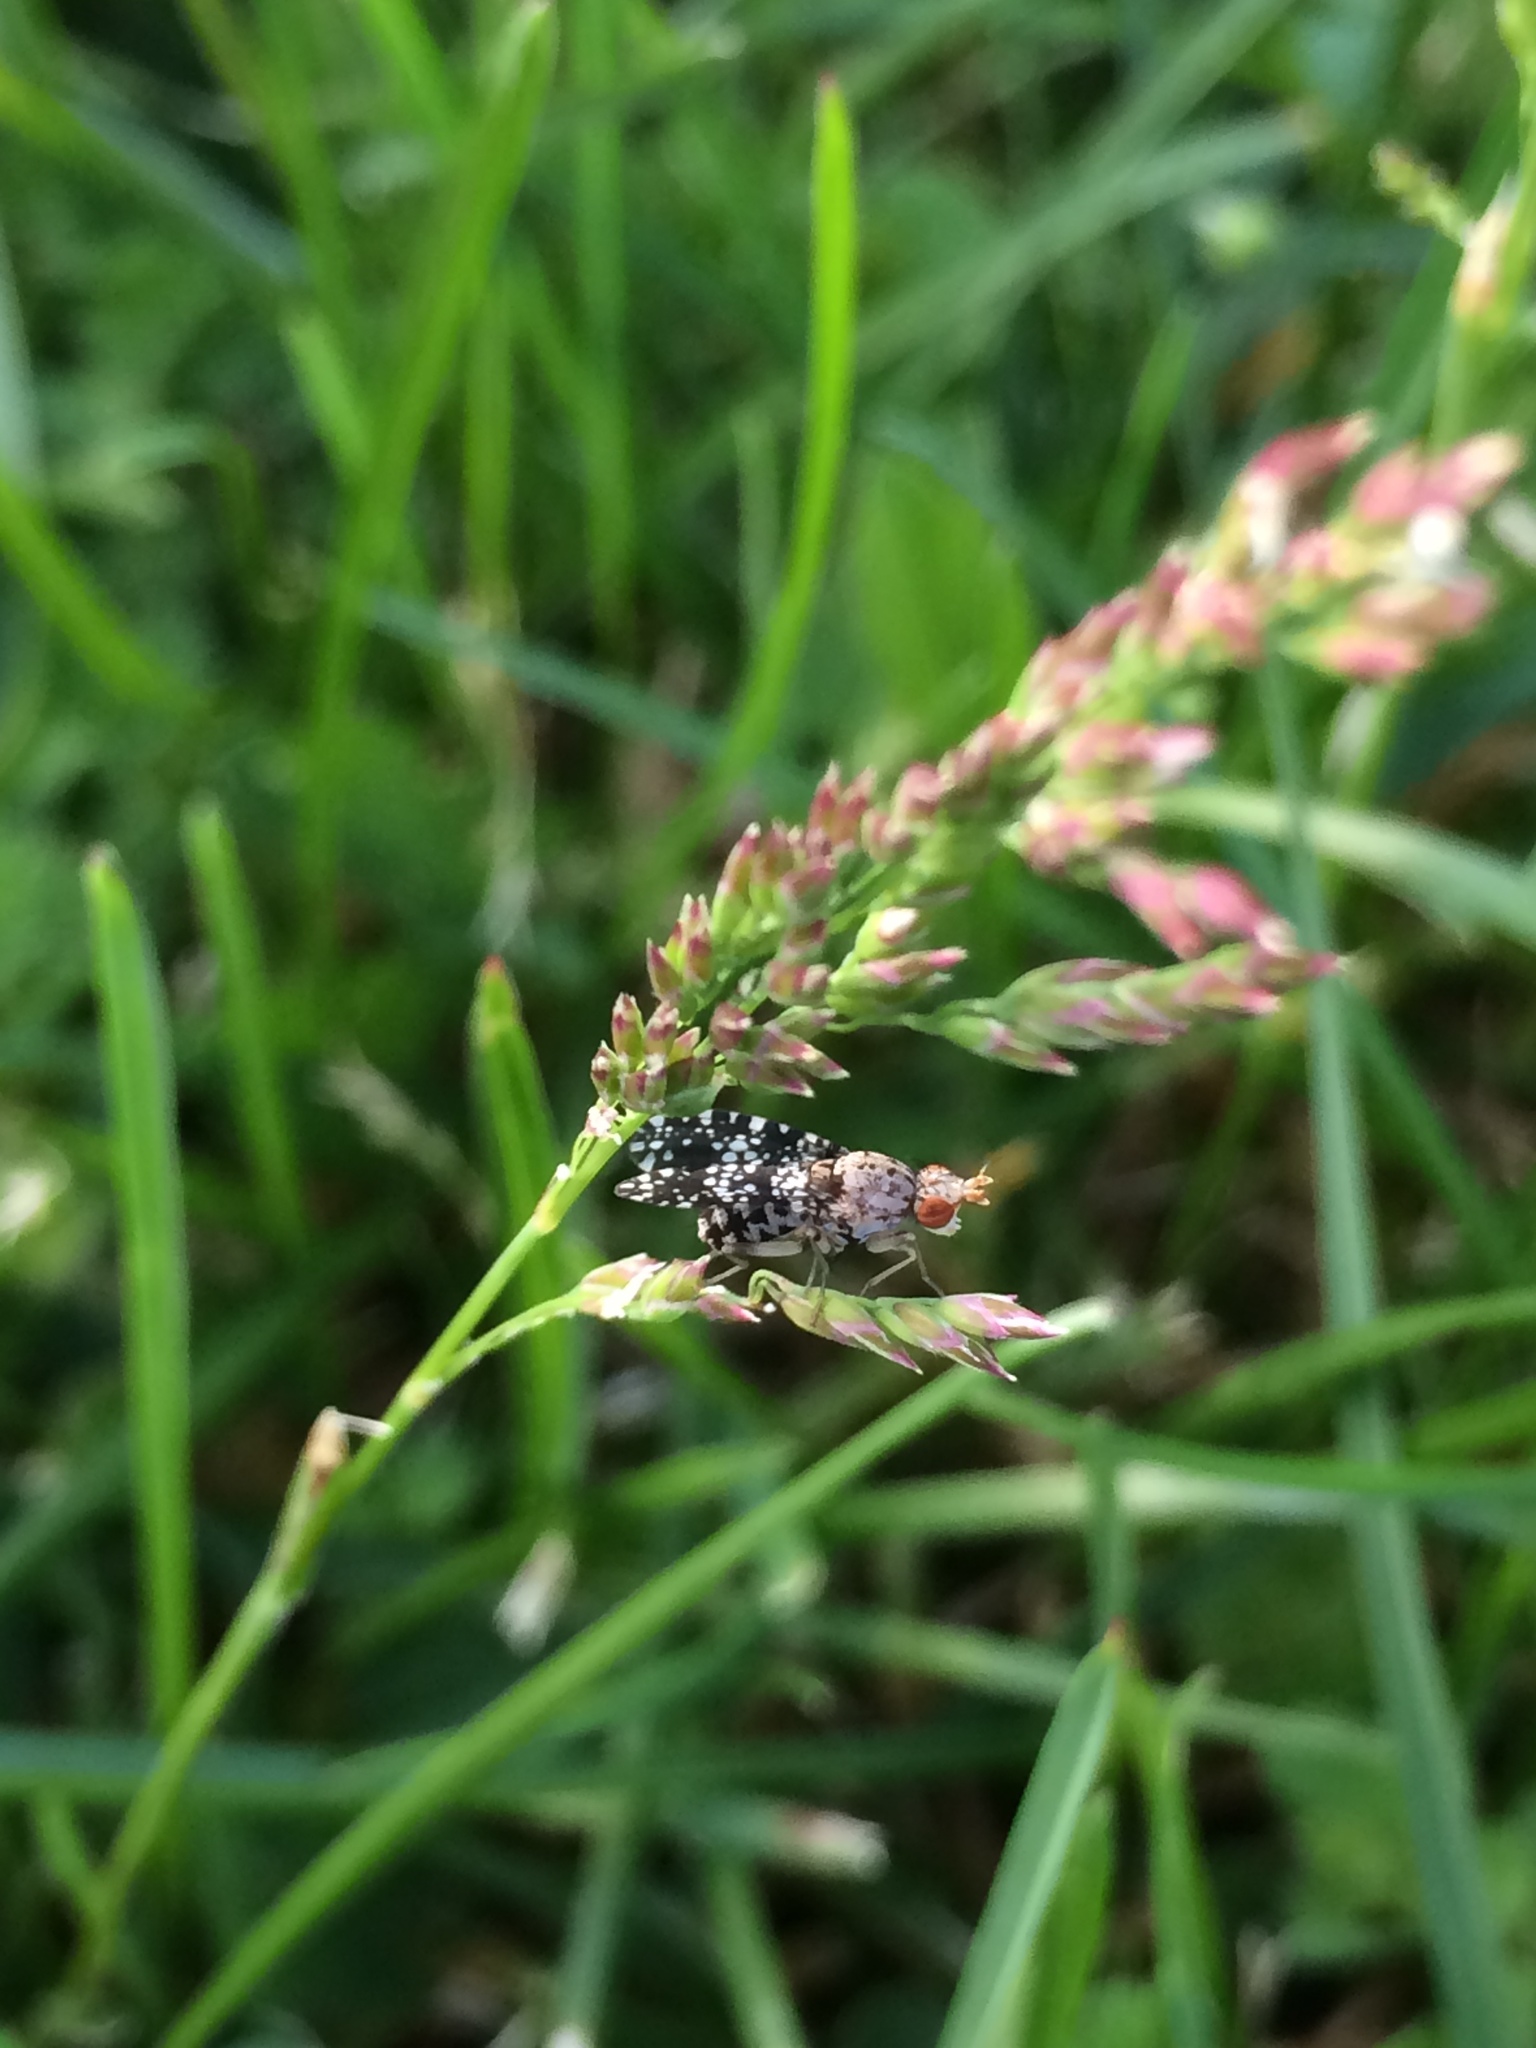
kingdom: Animalia
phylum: Arthropoda
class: Insecta
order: Diptera
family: Sciomyzidae
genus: Trypetoptera
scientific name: Trypetoptera punctulata
